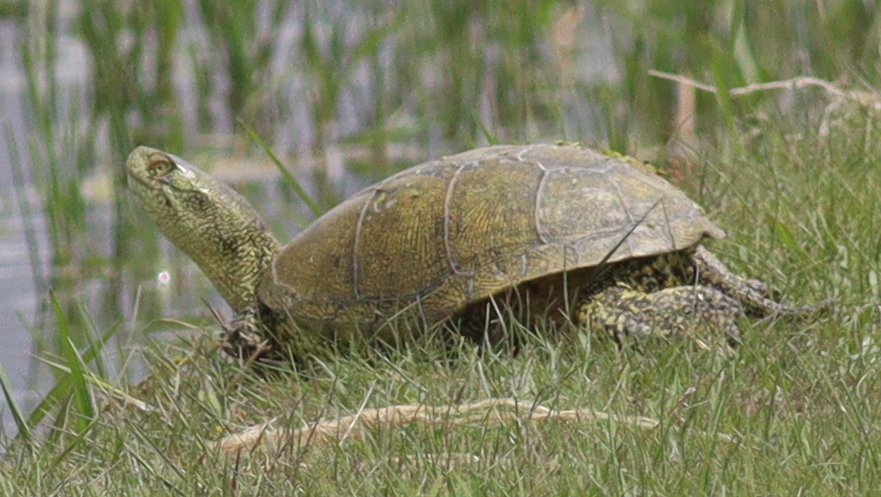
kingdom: Animalia
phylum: Chordata
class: Testudines
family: Emydidae
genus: Emys
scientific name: Emys orbicularis
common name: European pond turtle
